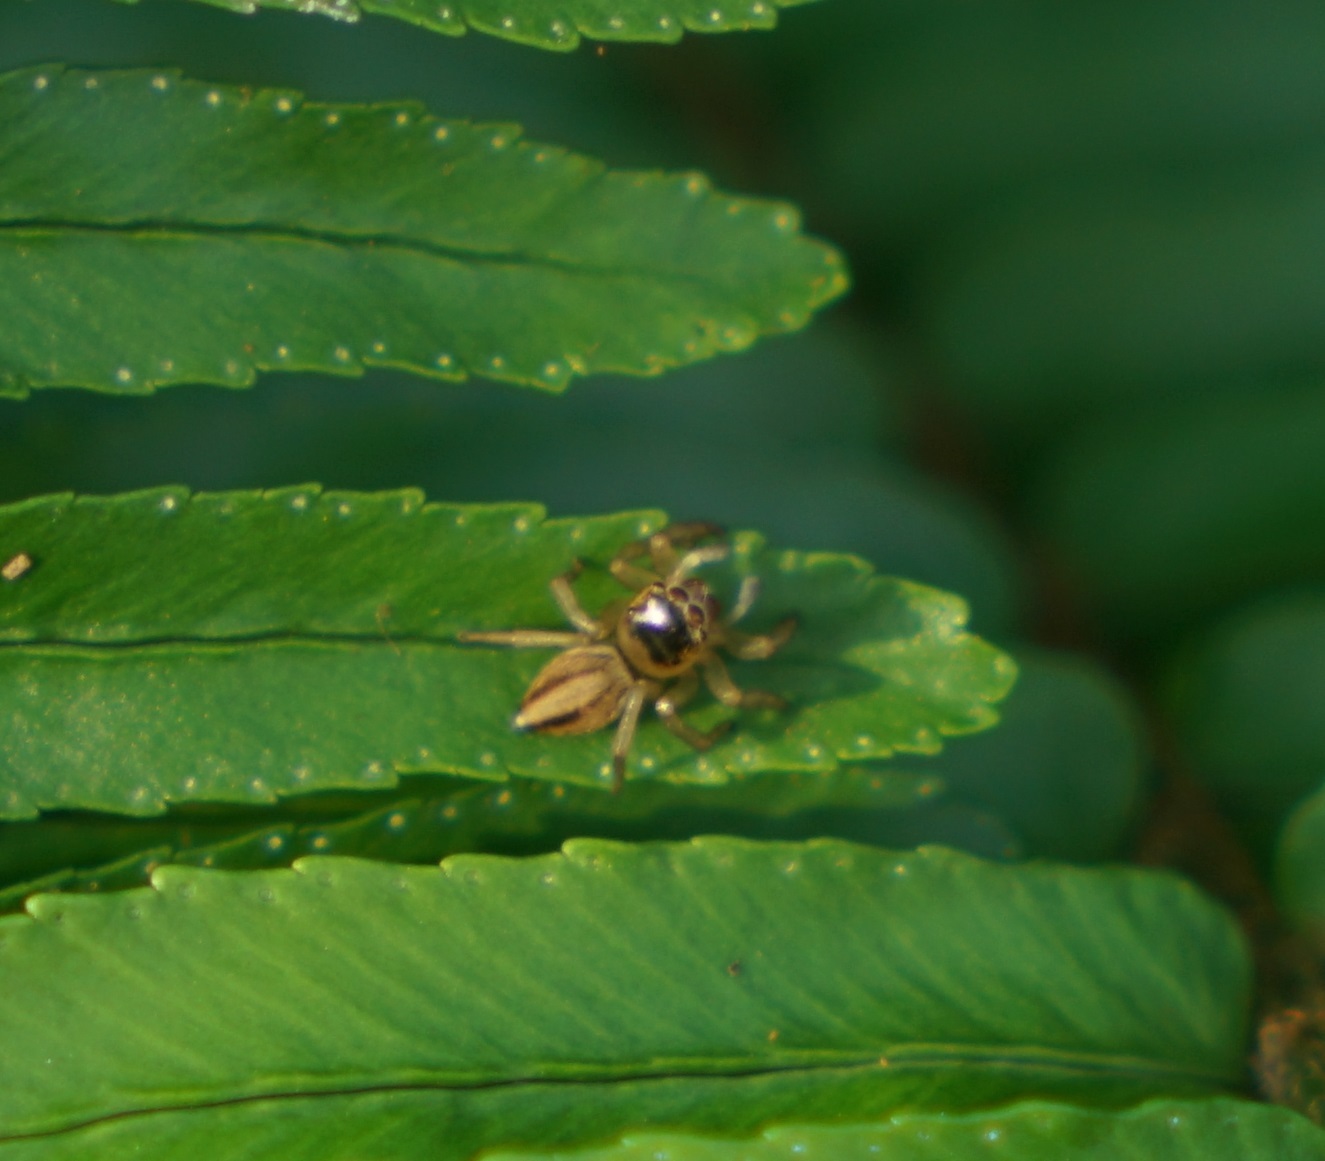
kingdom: Animalia
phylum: Arthropoda
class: Arachnida
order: Araneae
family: Salticidae
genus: Maratus
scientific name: Maratus scutulatus
